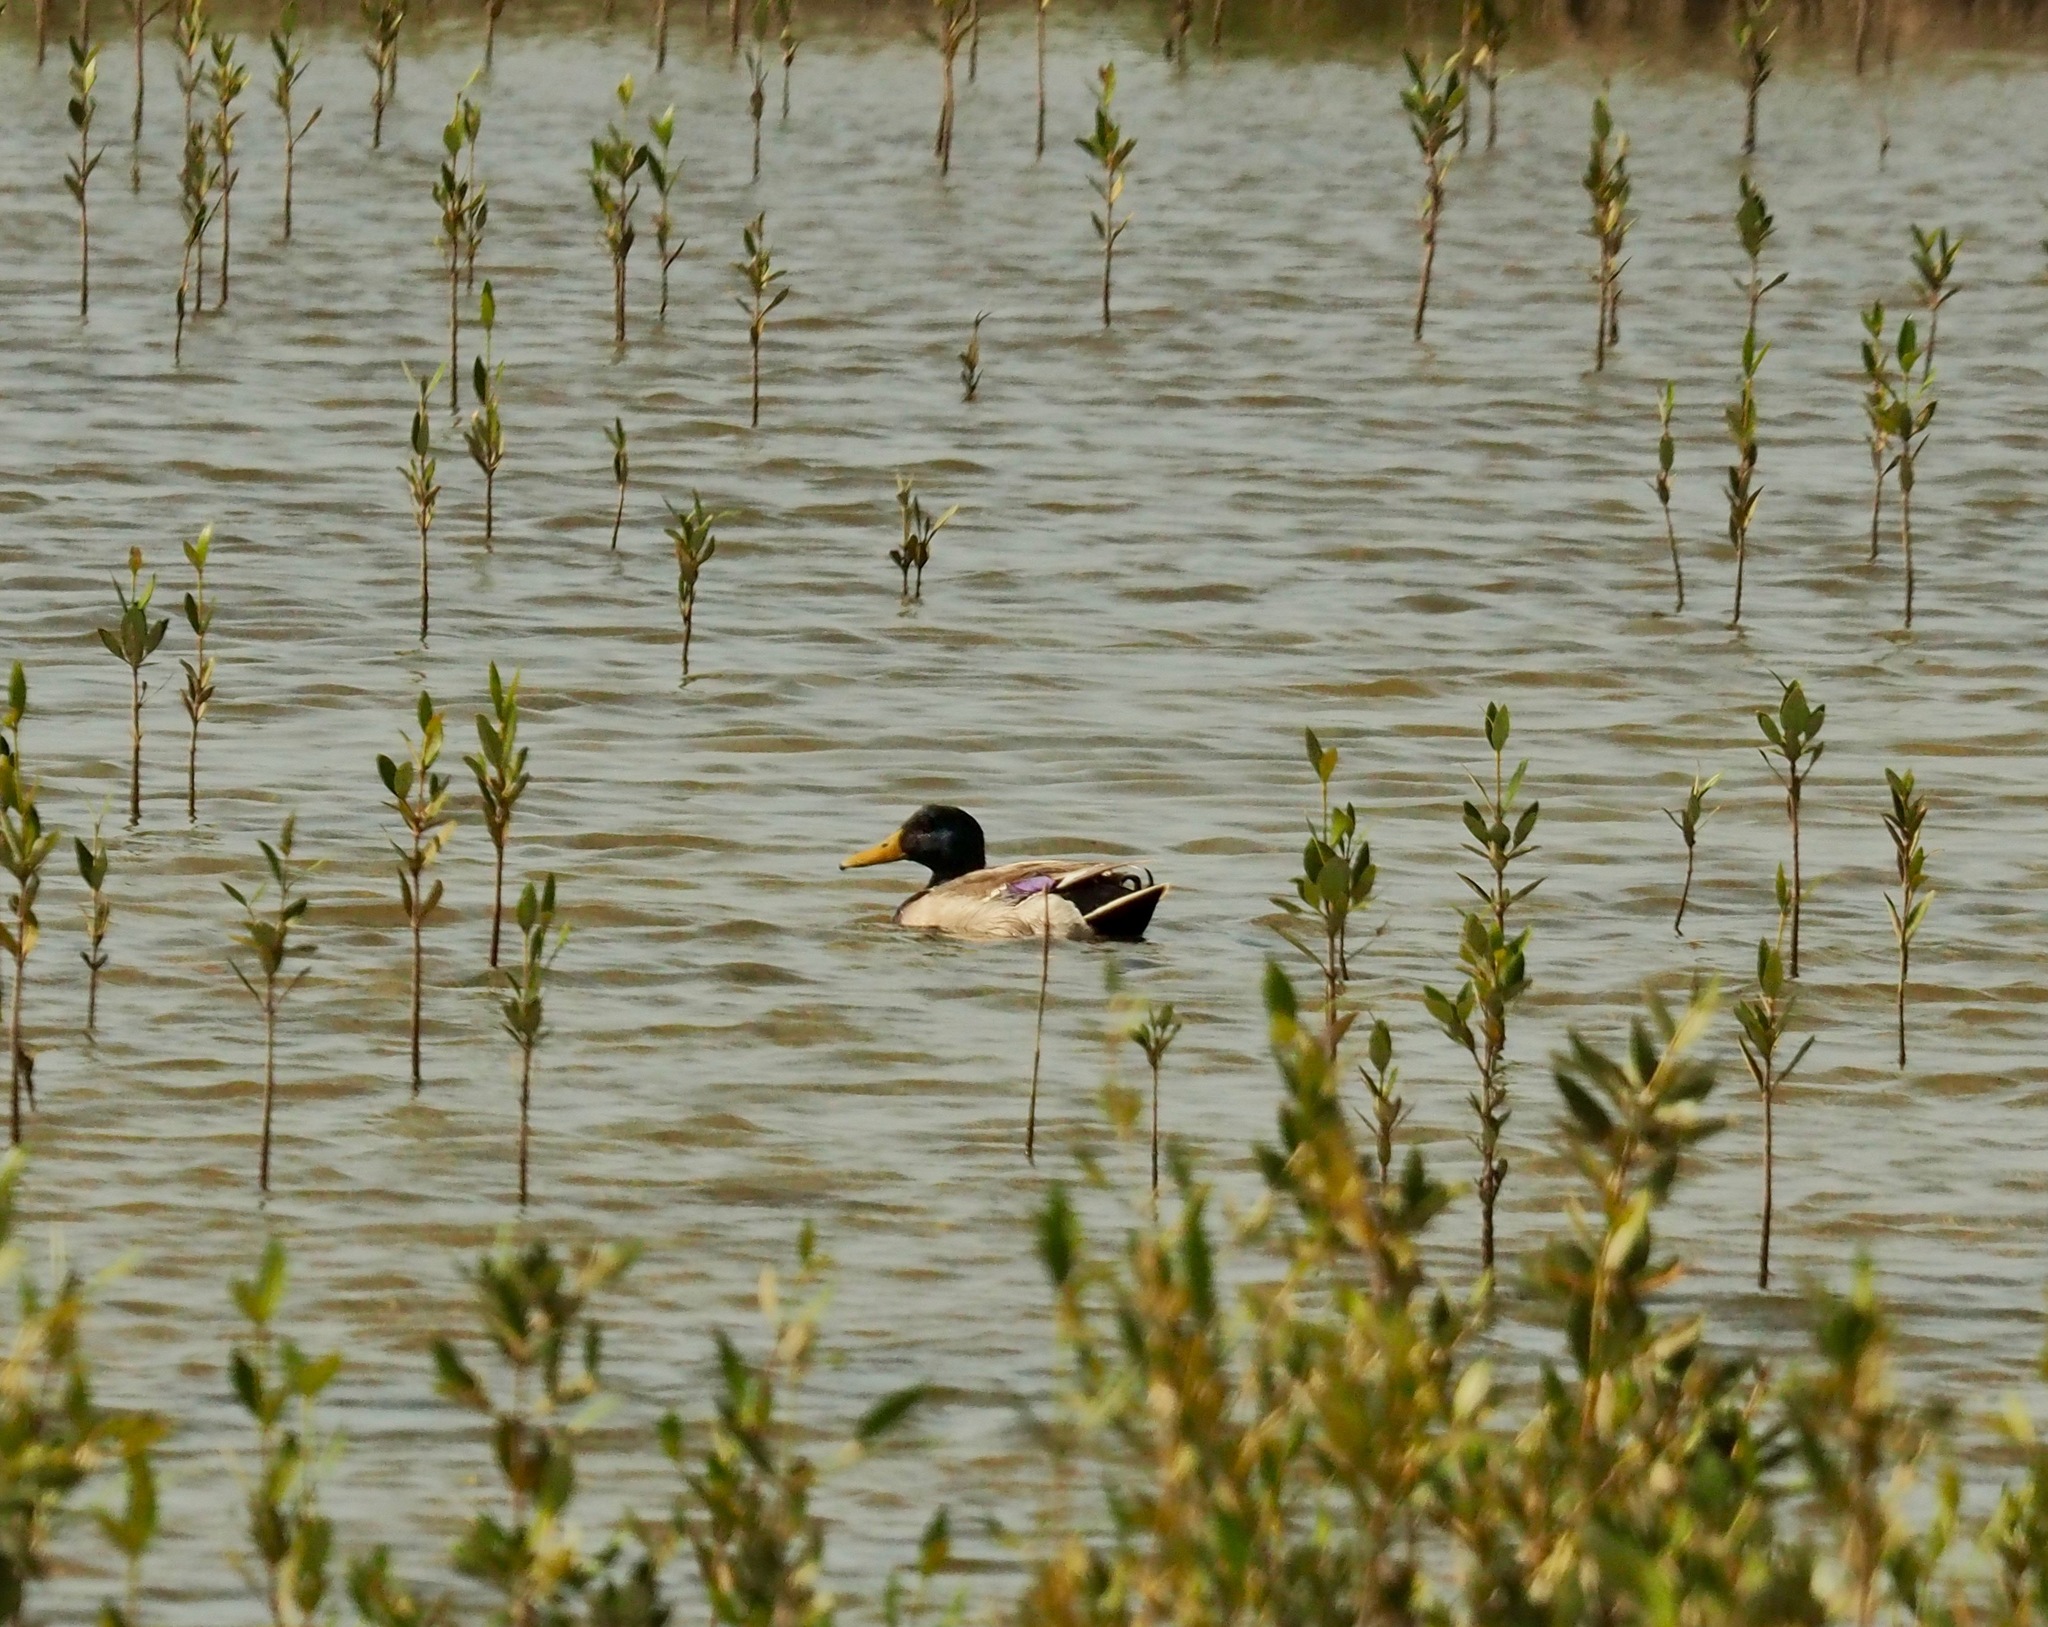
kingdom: Animalia
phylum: Chordata
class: Aves
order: Anseriformes
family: Anatidae
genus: Anas
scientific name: Anas platyrhynchos
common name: Mallard
